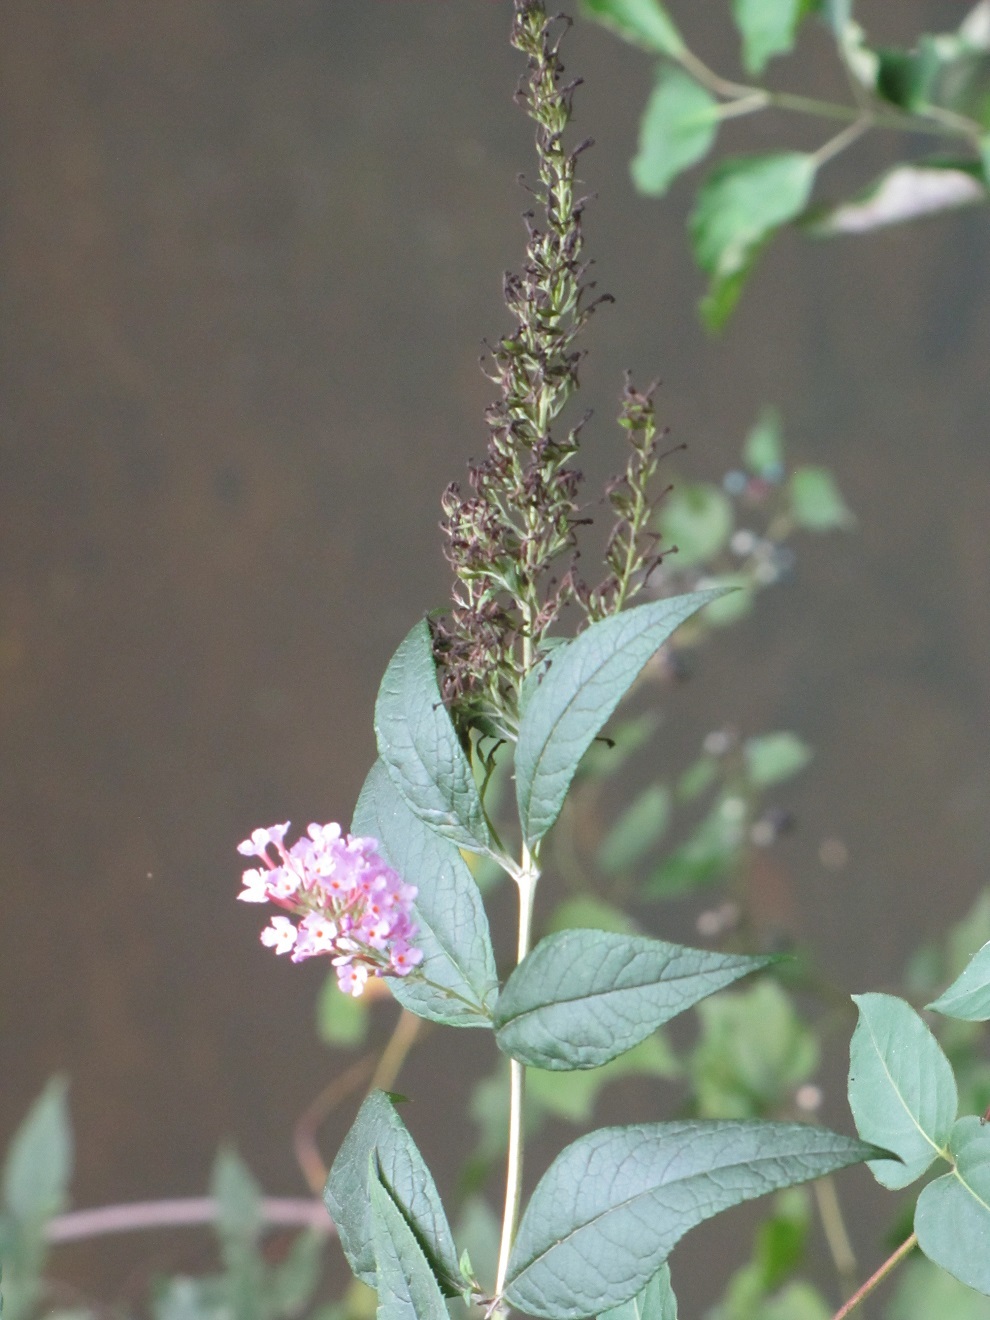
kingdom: Plantae
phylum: Tracheophyta
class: Magnoliopsida
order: Lamiales
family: Scrophulariaceae
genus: Buddleja
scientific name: Buddleja davidii
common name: Butterfly-bush
